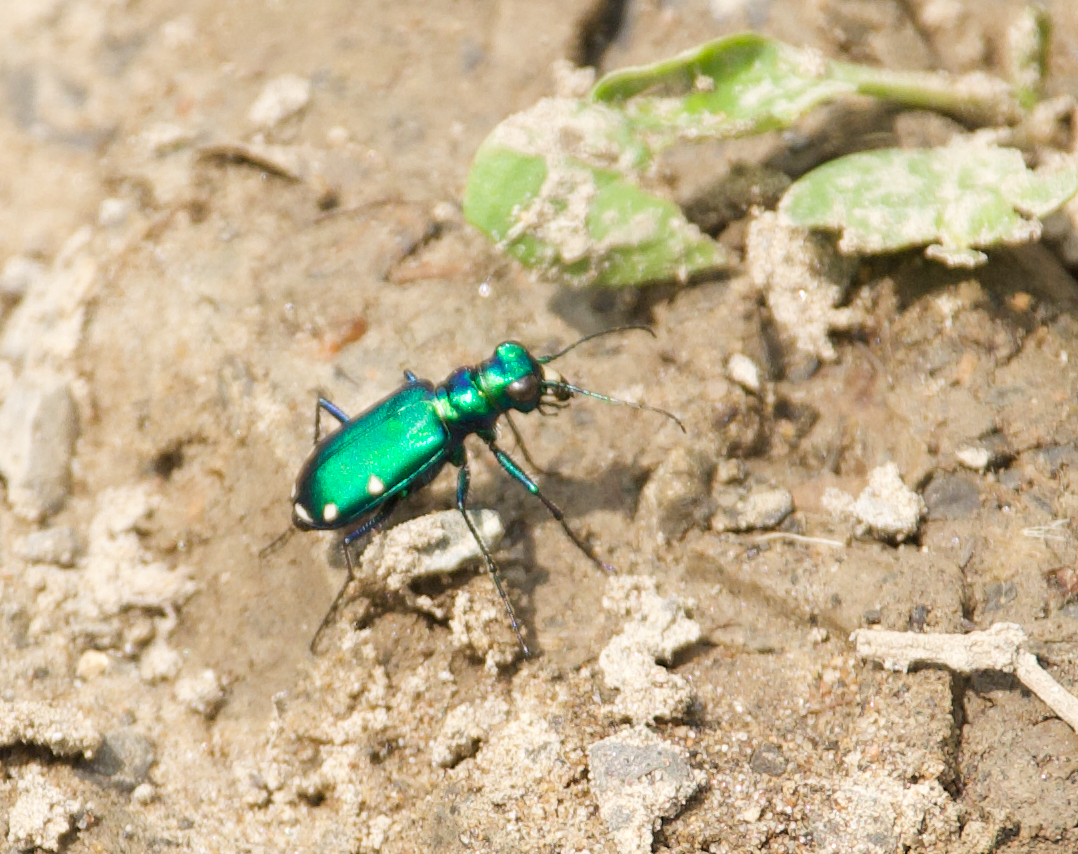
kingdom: Animalia
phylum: Arthropoda
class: Insecta
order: Coleoptera
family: Carabidae
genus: Cicindela
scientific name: Cicindela sexguttata
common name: Six-spotted tiger beetle
